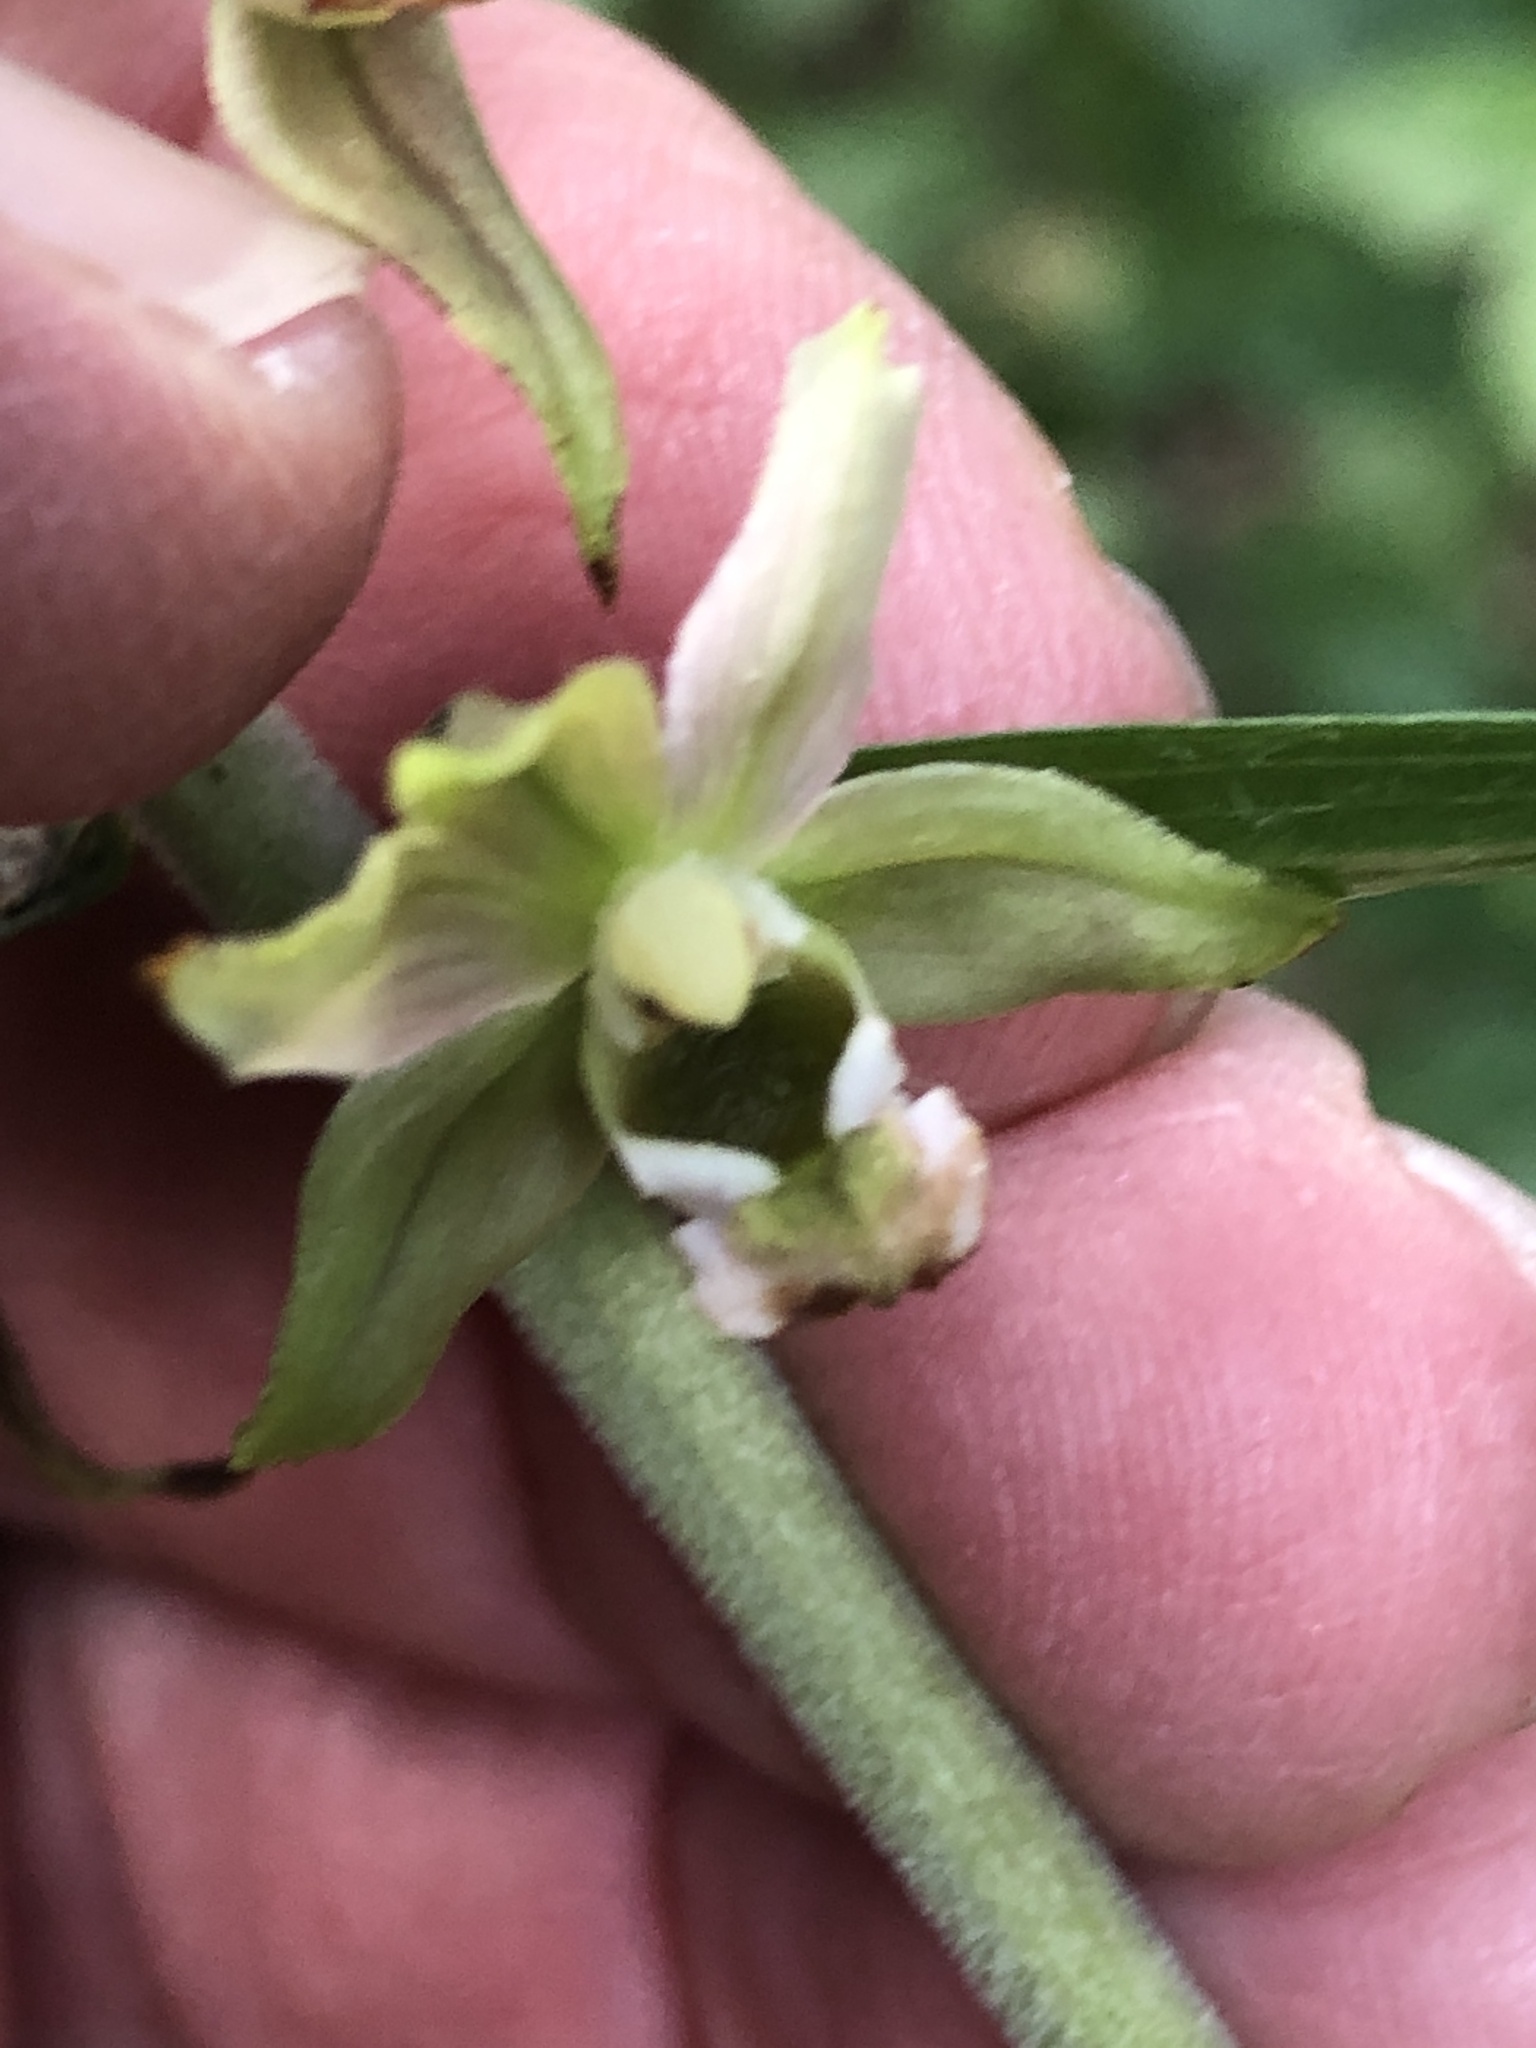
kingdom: Plantae
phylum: Tracheophyta
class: Liliopsida
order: Asparagales
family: Orchidaceae
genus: Epipactis
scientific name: Epipactis helleborine
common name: Broad-leaved helleborine
